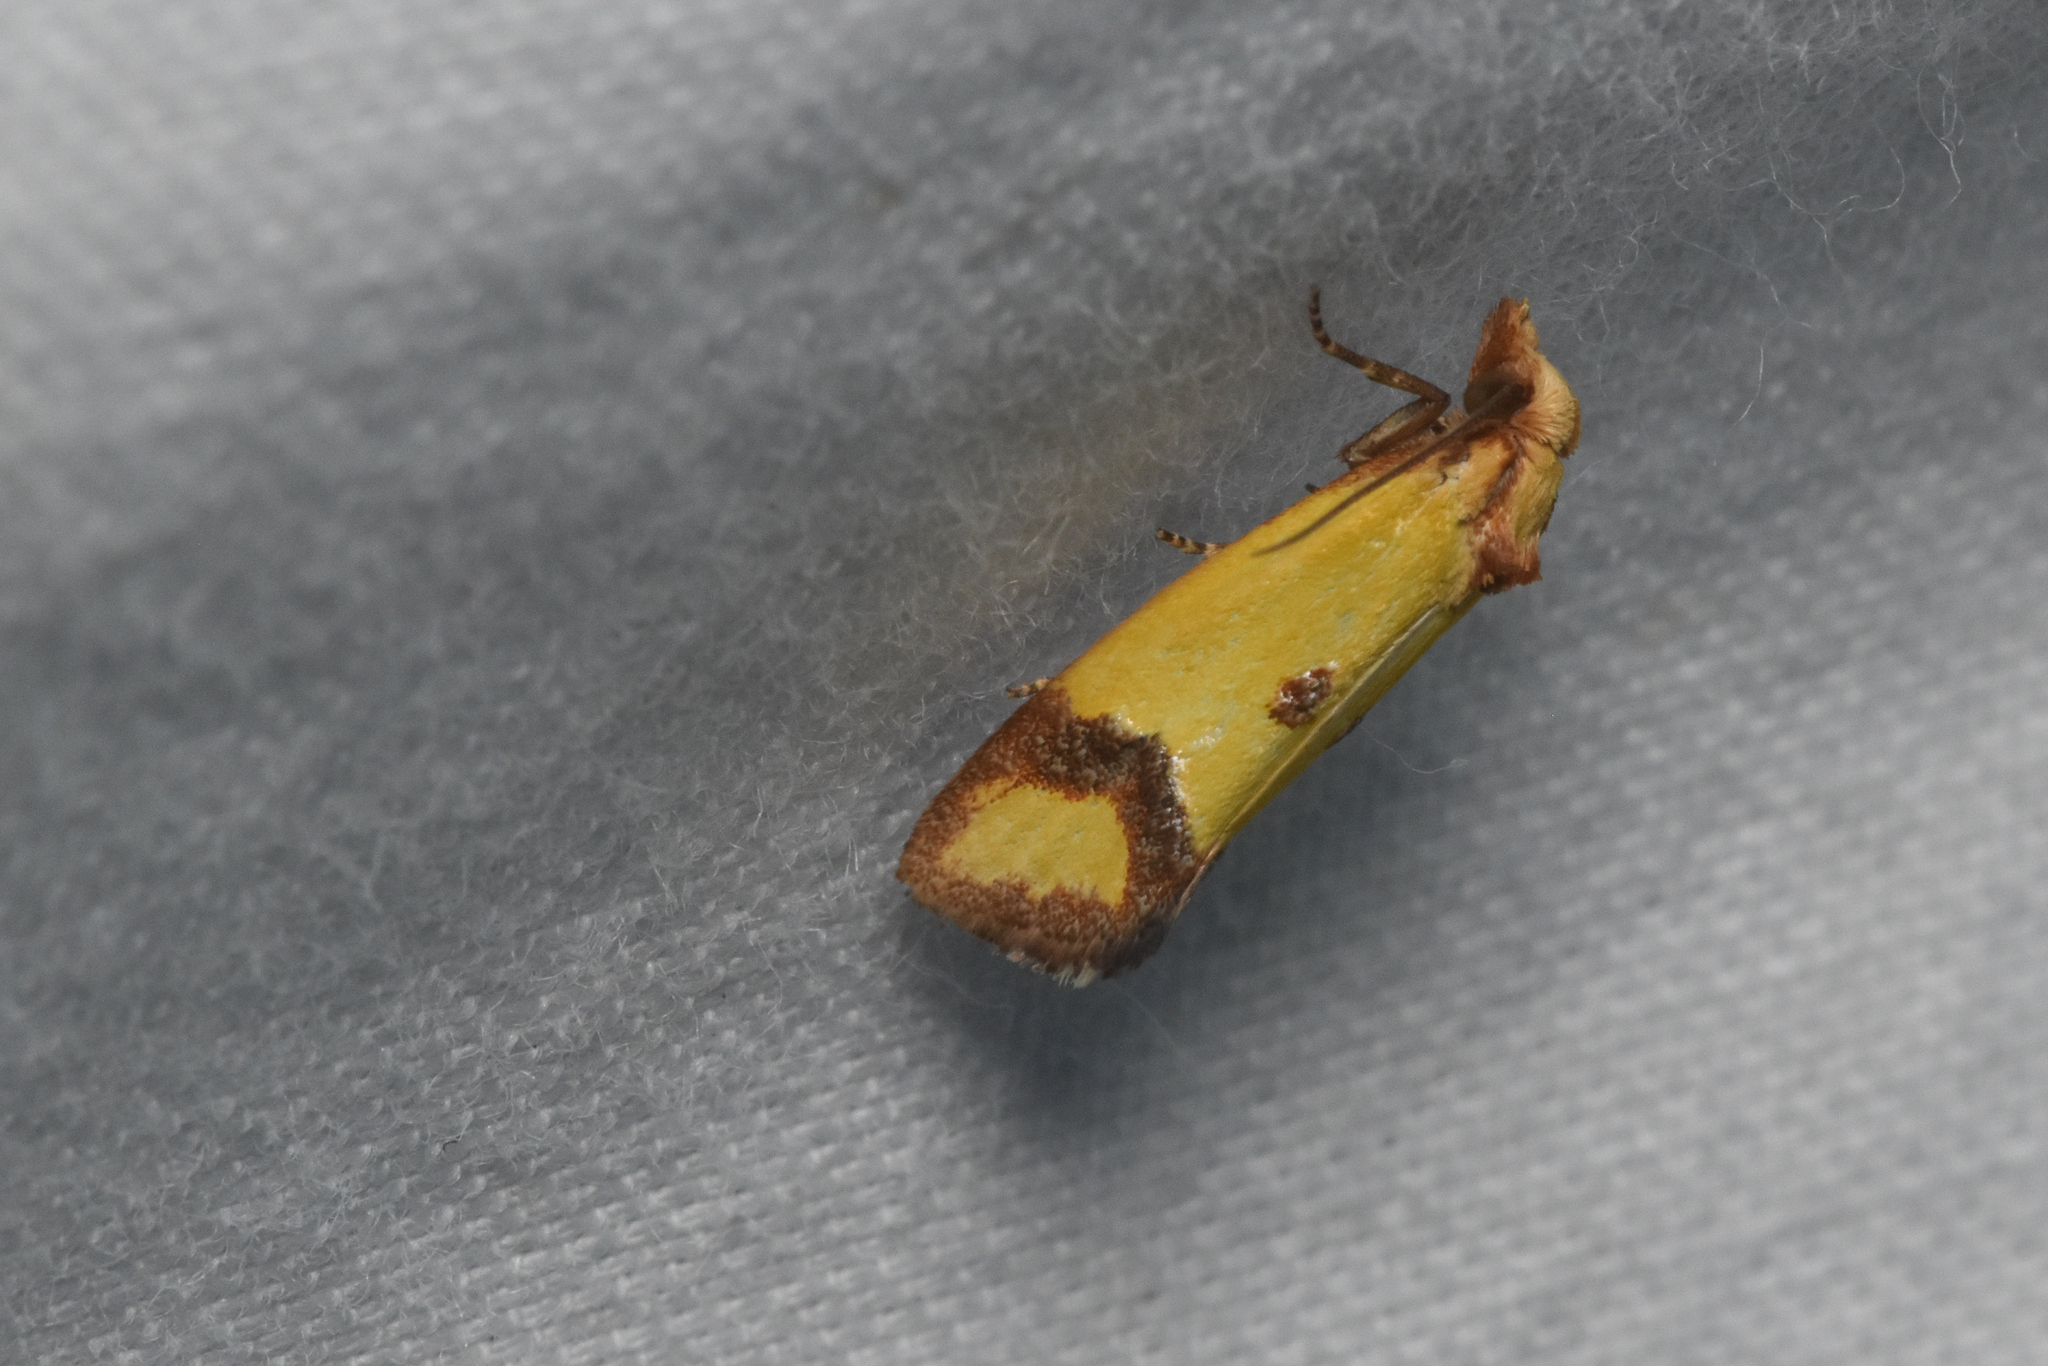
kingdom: Animalia
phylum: Arthropoda
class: Insecta
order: Lepidoptera
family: Tortricidae
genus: Agapeta
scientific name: Agapeta zoegana
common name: Sulfur knapweed root moth
